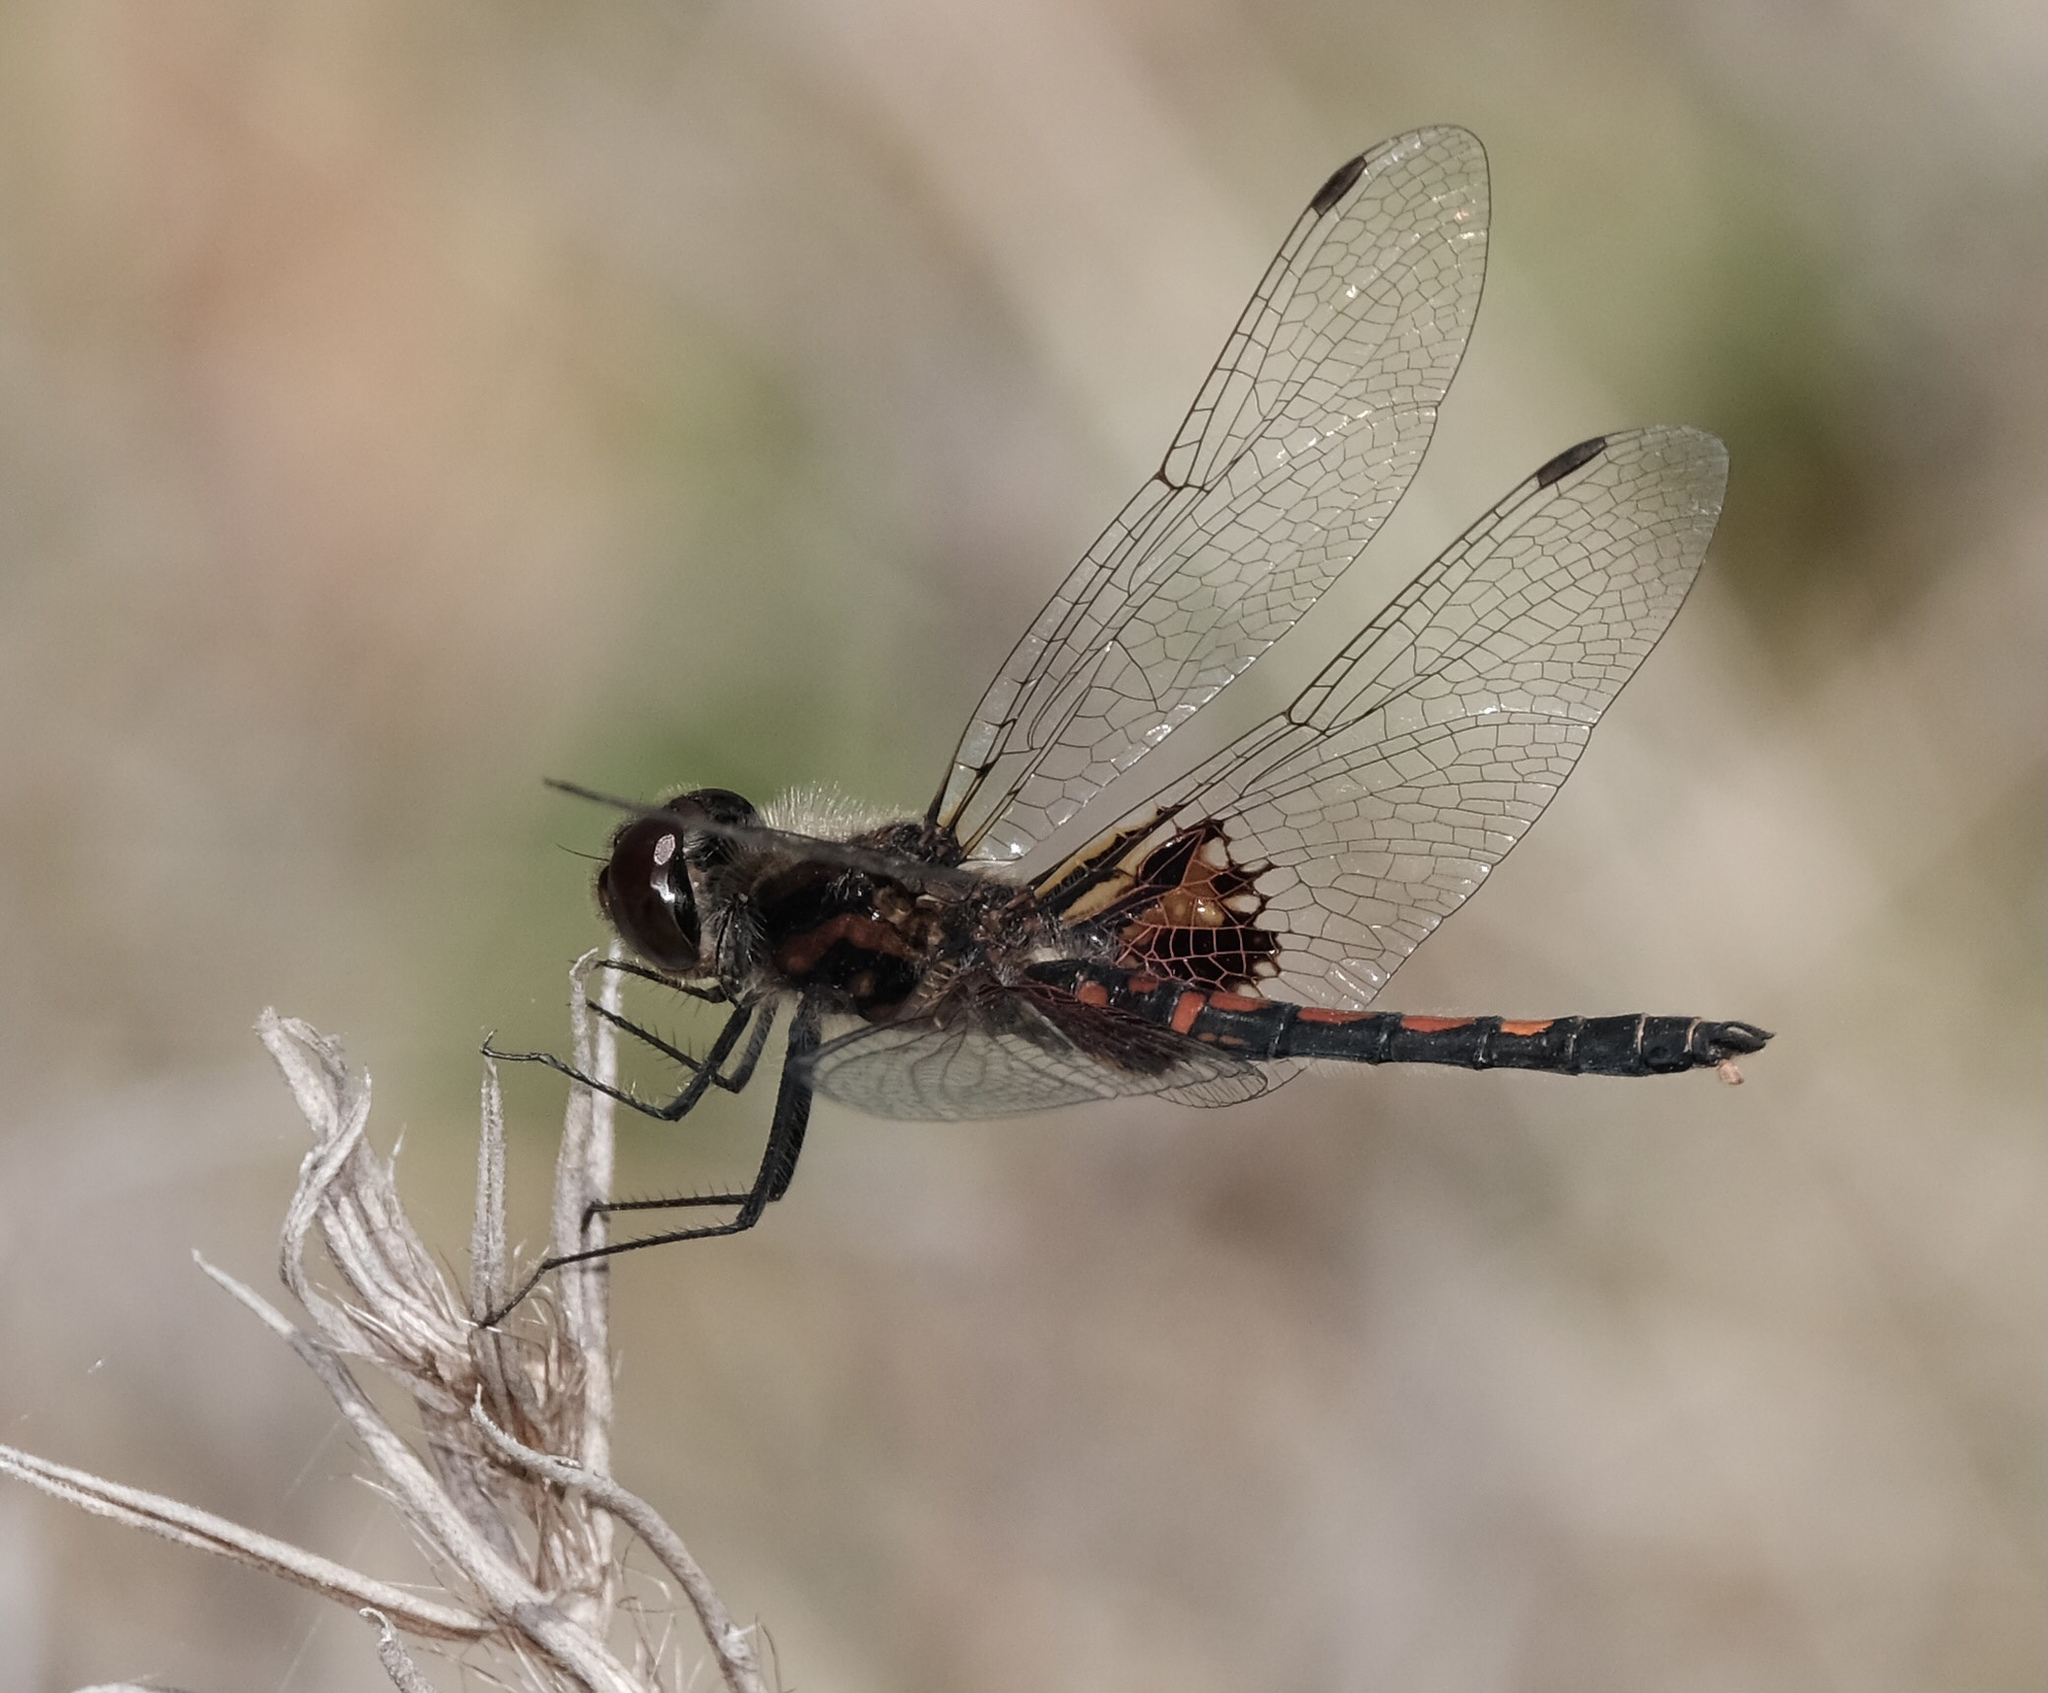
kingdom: Animalia
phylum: Arthropoda
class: Insecta
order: Odonata
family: Libellulidae
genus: Celithemis
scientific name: Celithemis ornata
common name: Ornate pennant
